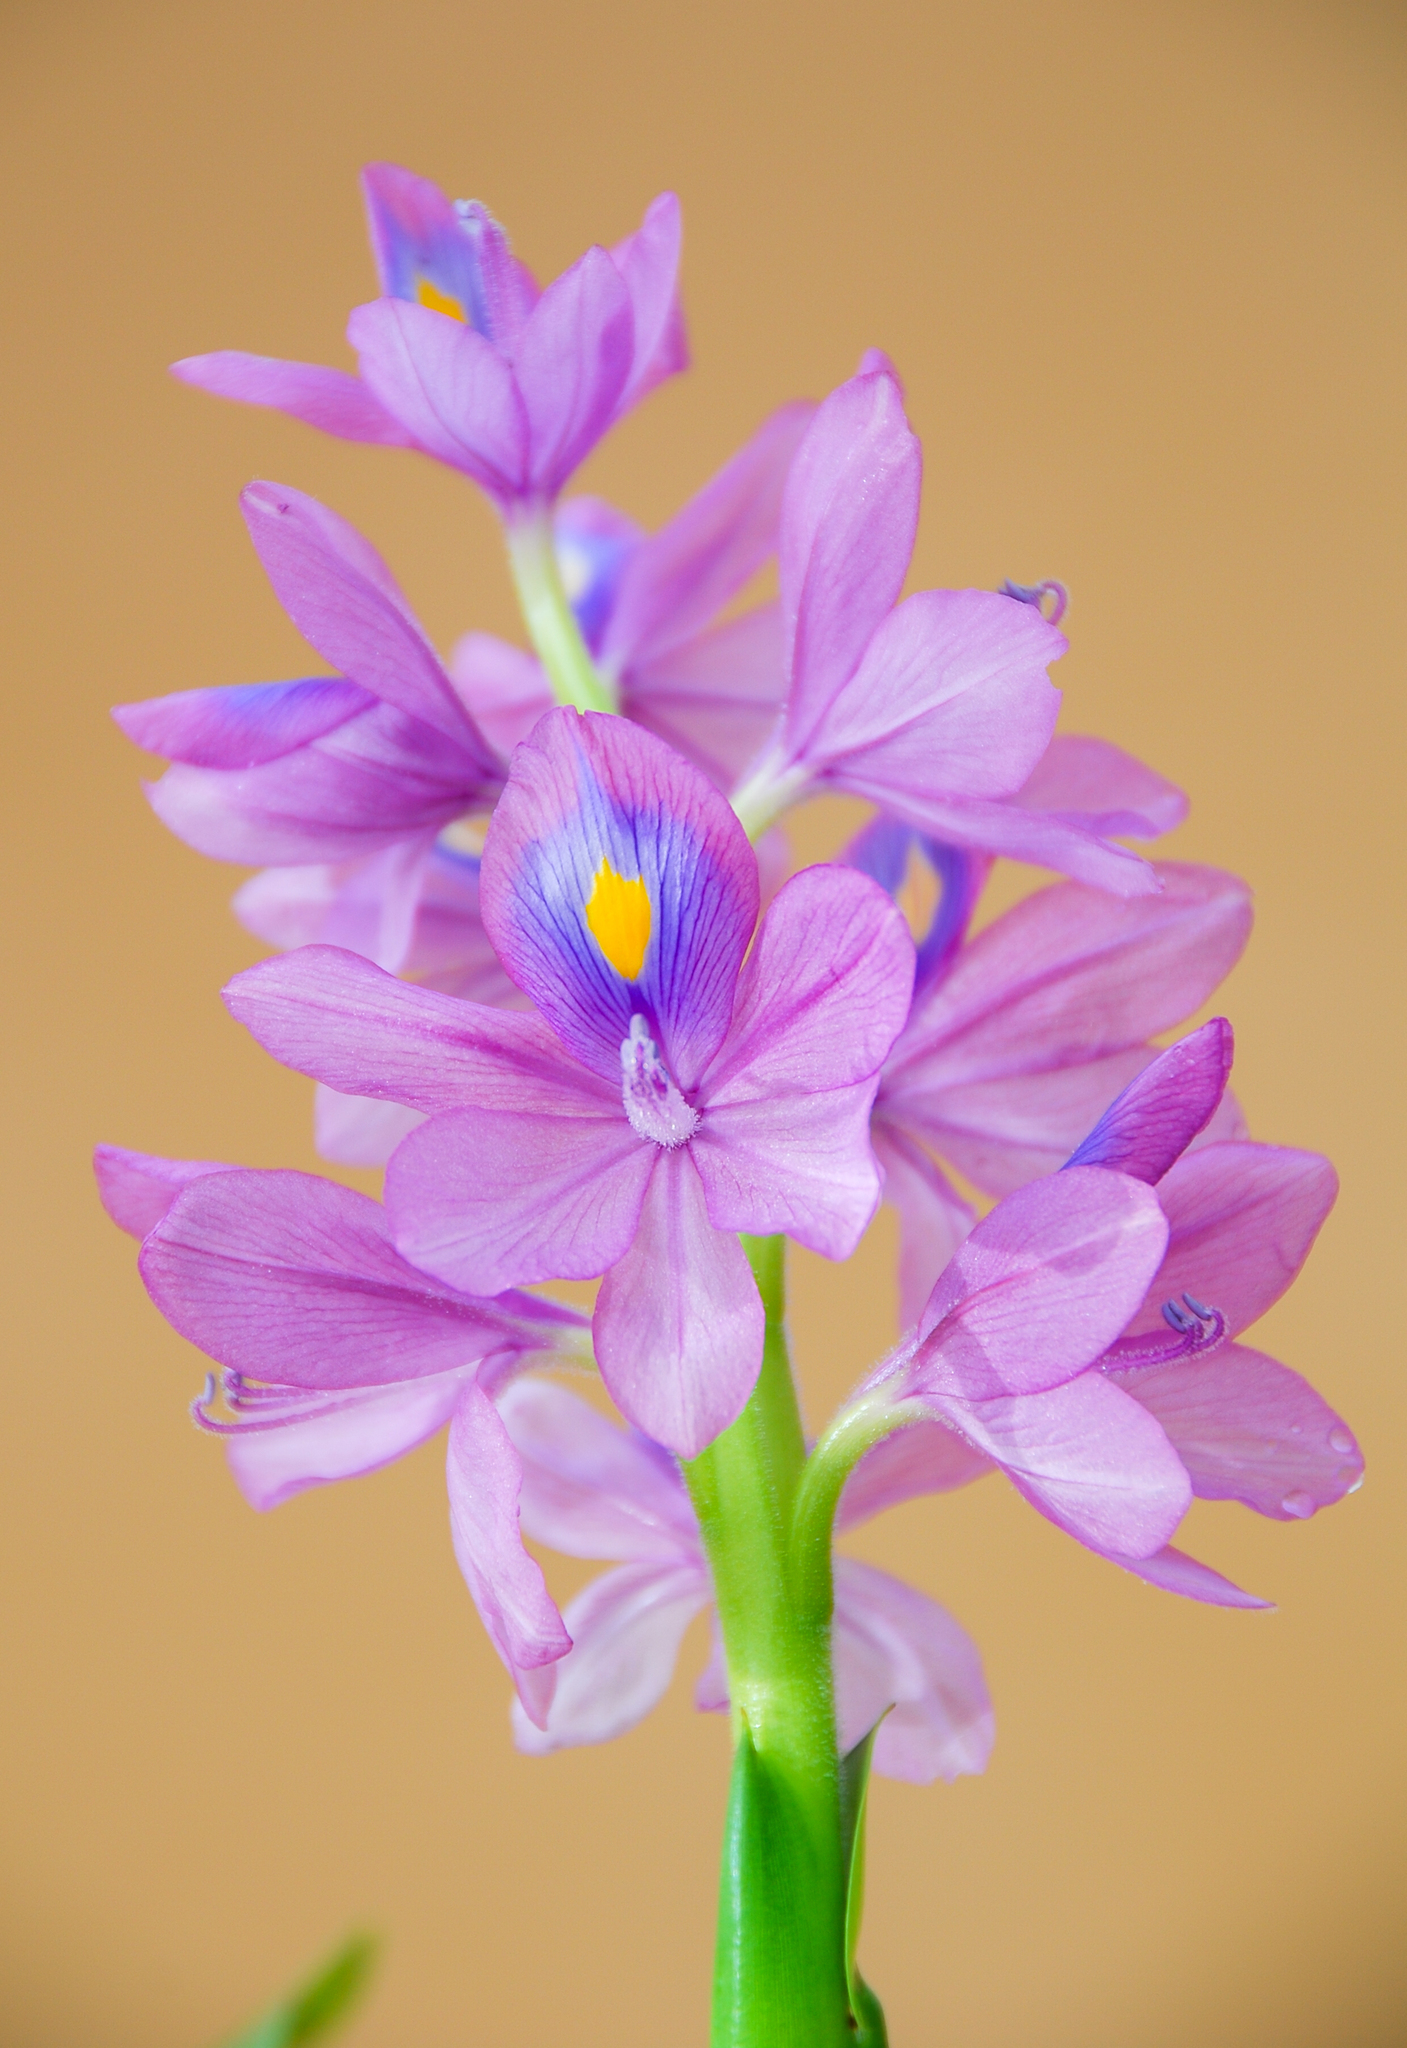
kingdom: Plantae
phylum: Tracheophyta
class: Liliopsida
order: Commelinales
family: Pontederiaceae
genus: Pontederia
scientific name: Pontederia crassipes
